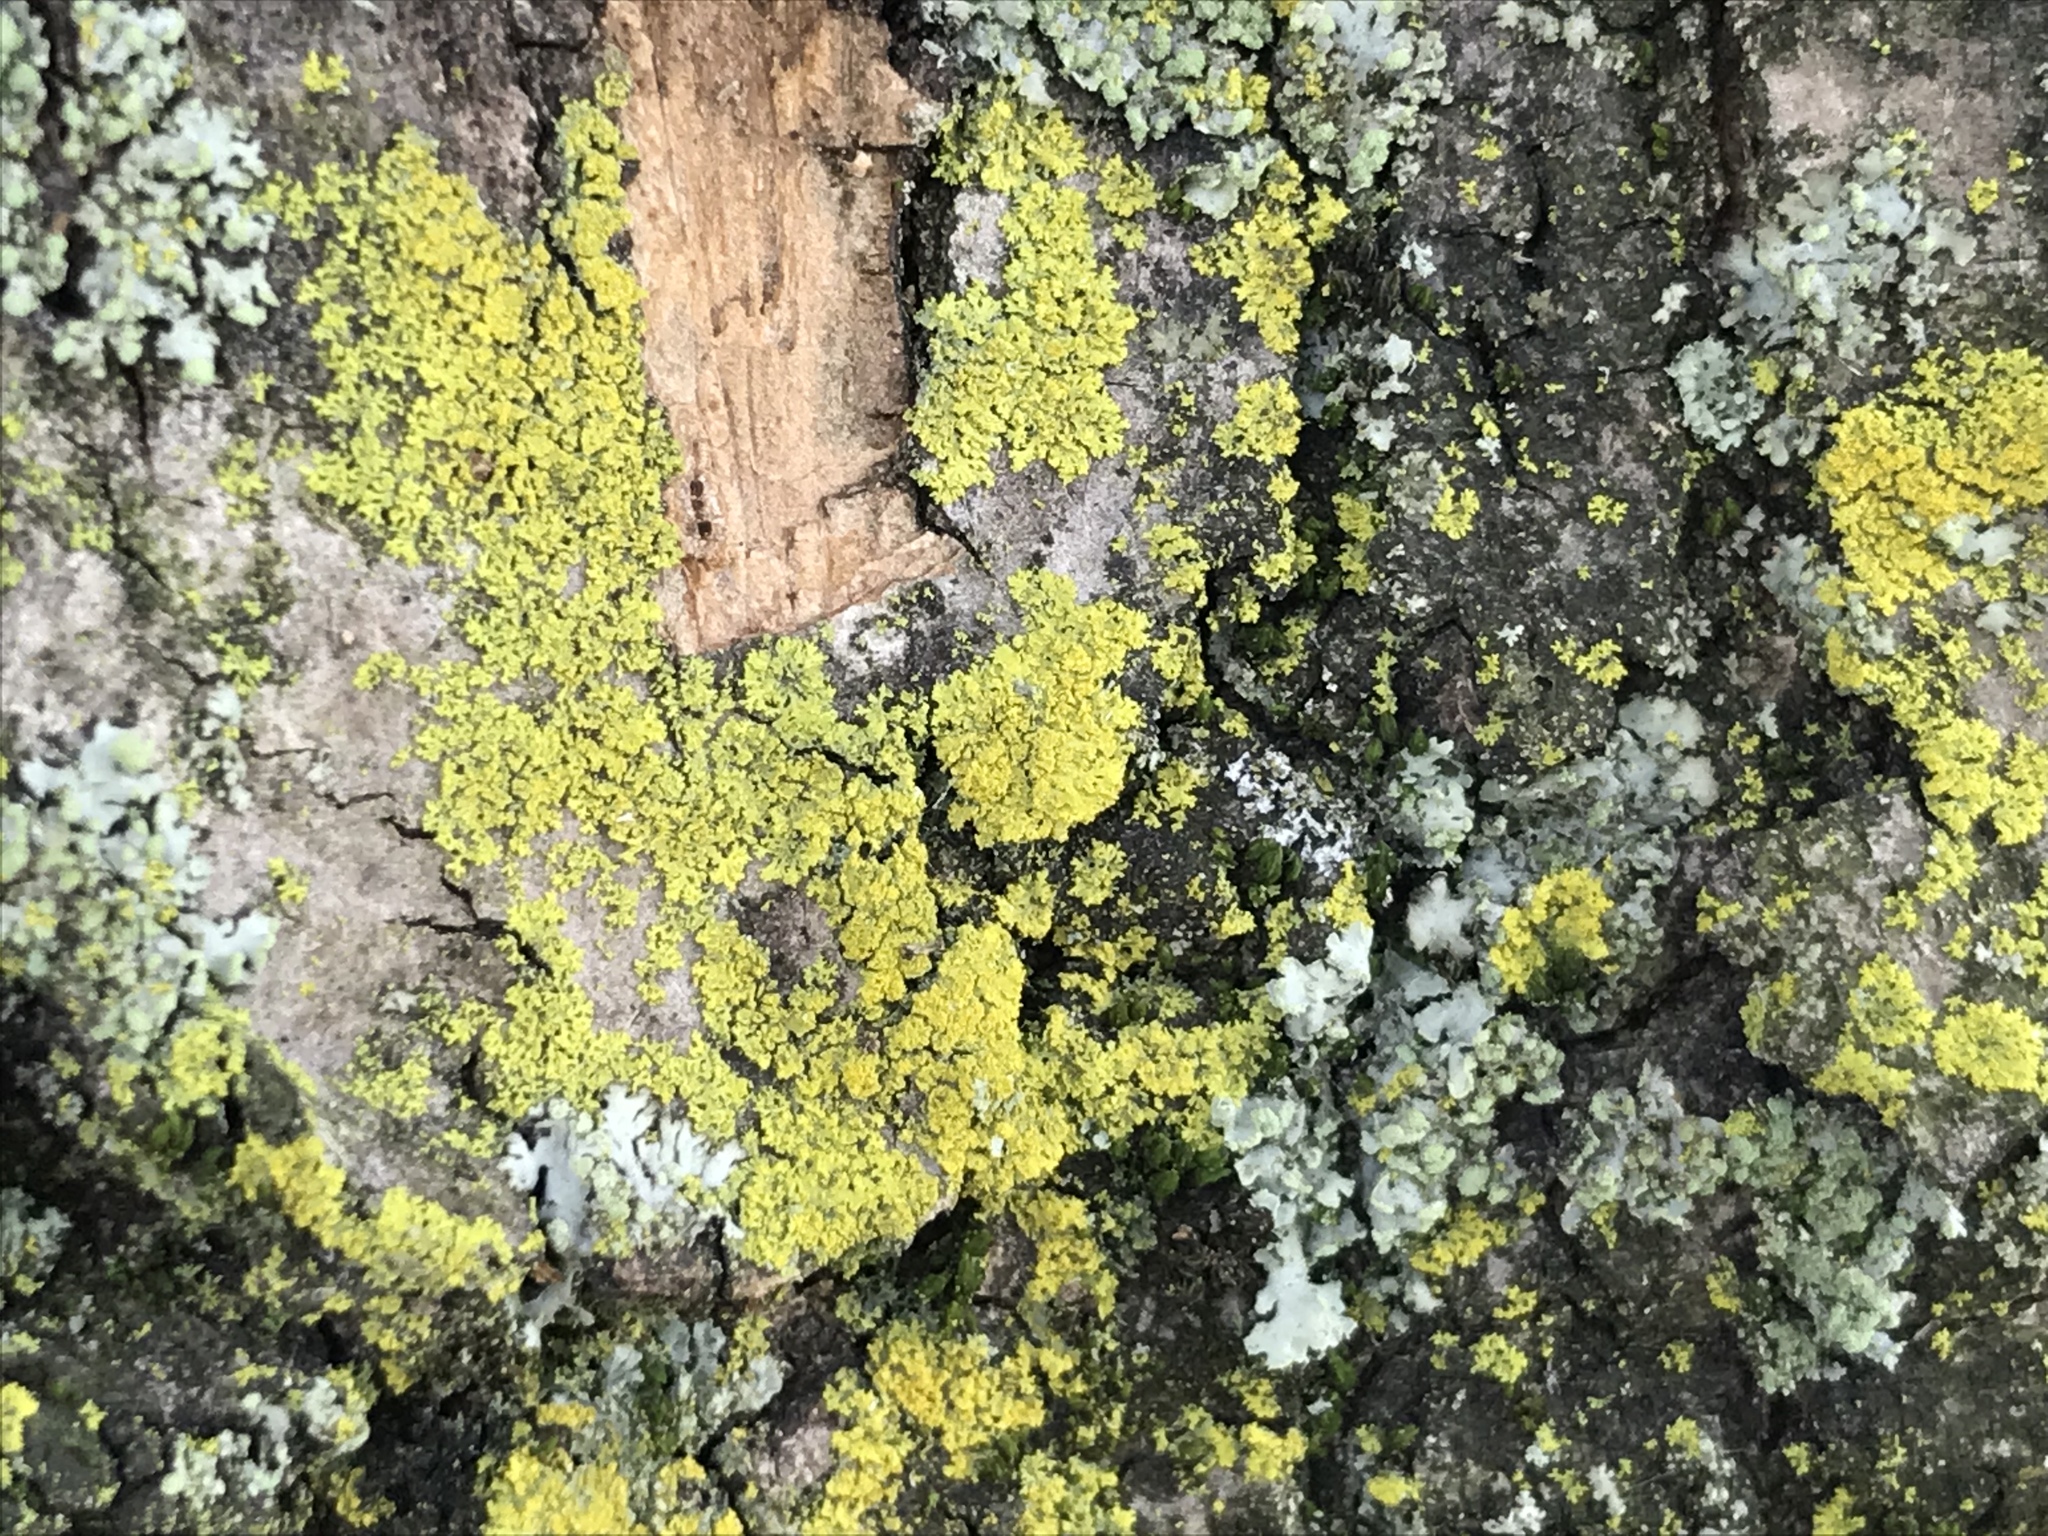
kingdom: Fungi
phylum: Ascomycota
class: Candelariomycetes
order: Candelariales
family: Candelariaceae
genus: Candelaria
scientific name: Candelaria concolor
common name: Candleflame lichen
